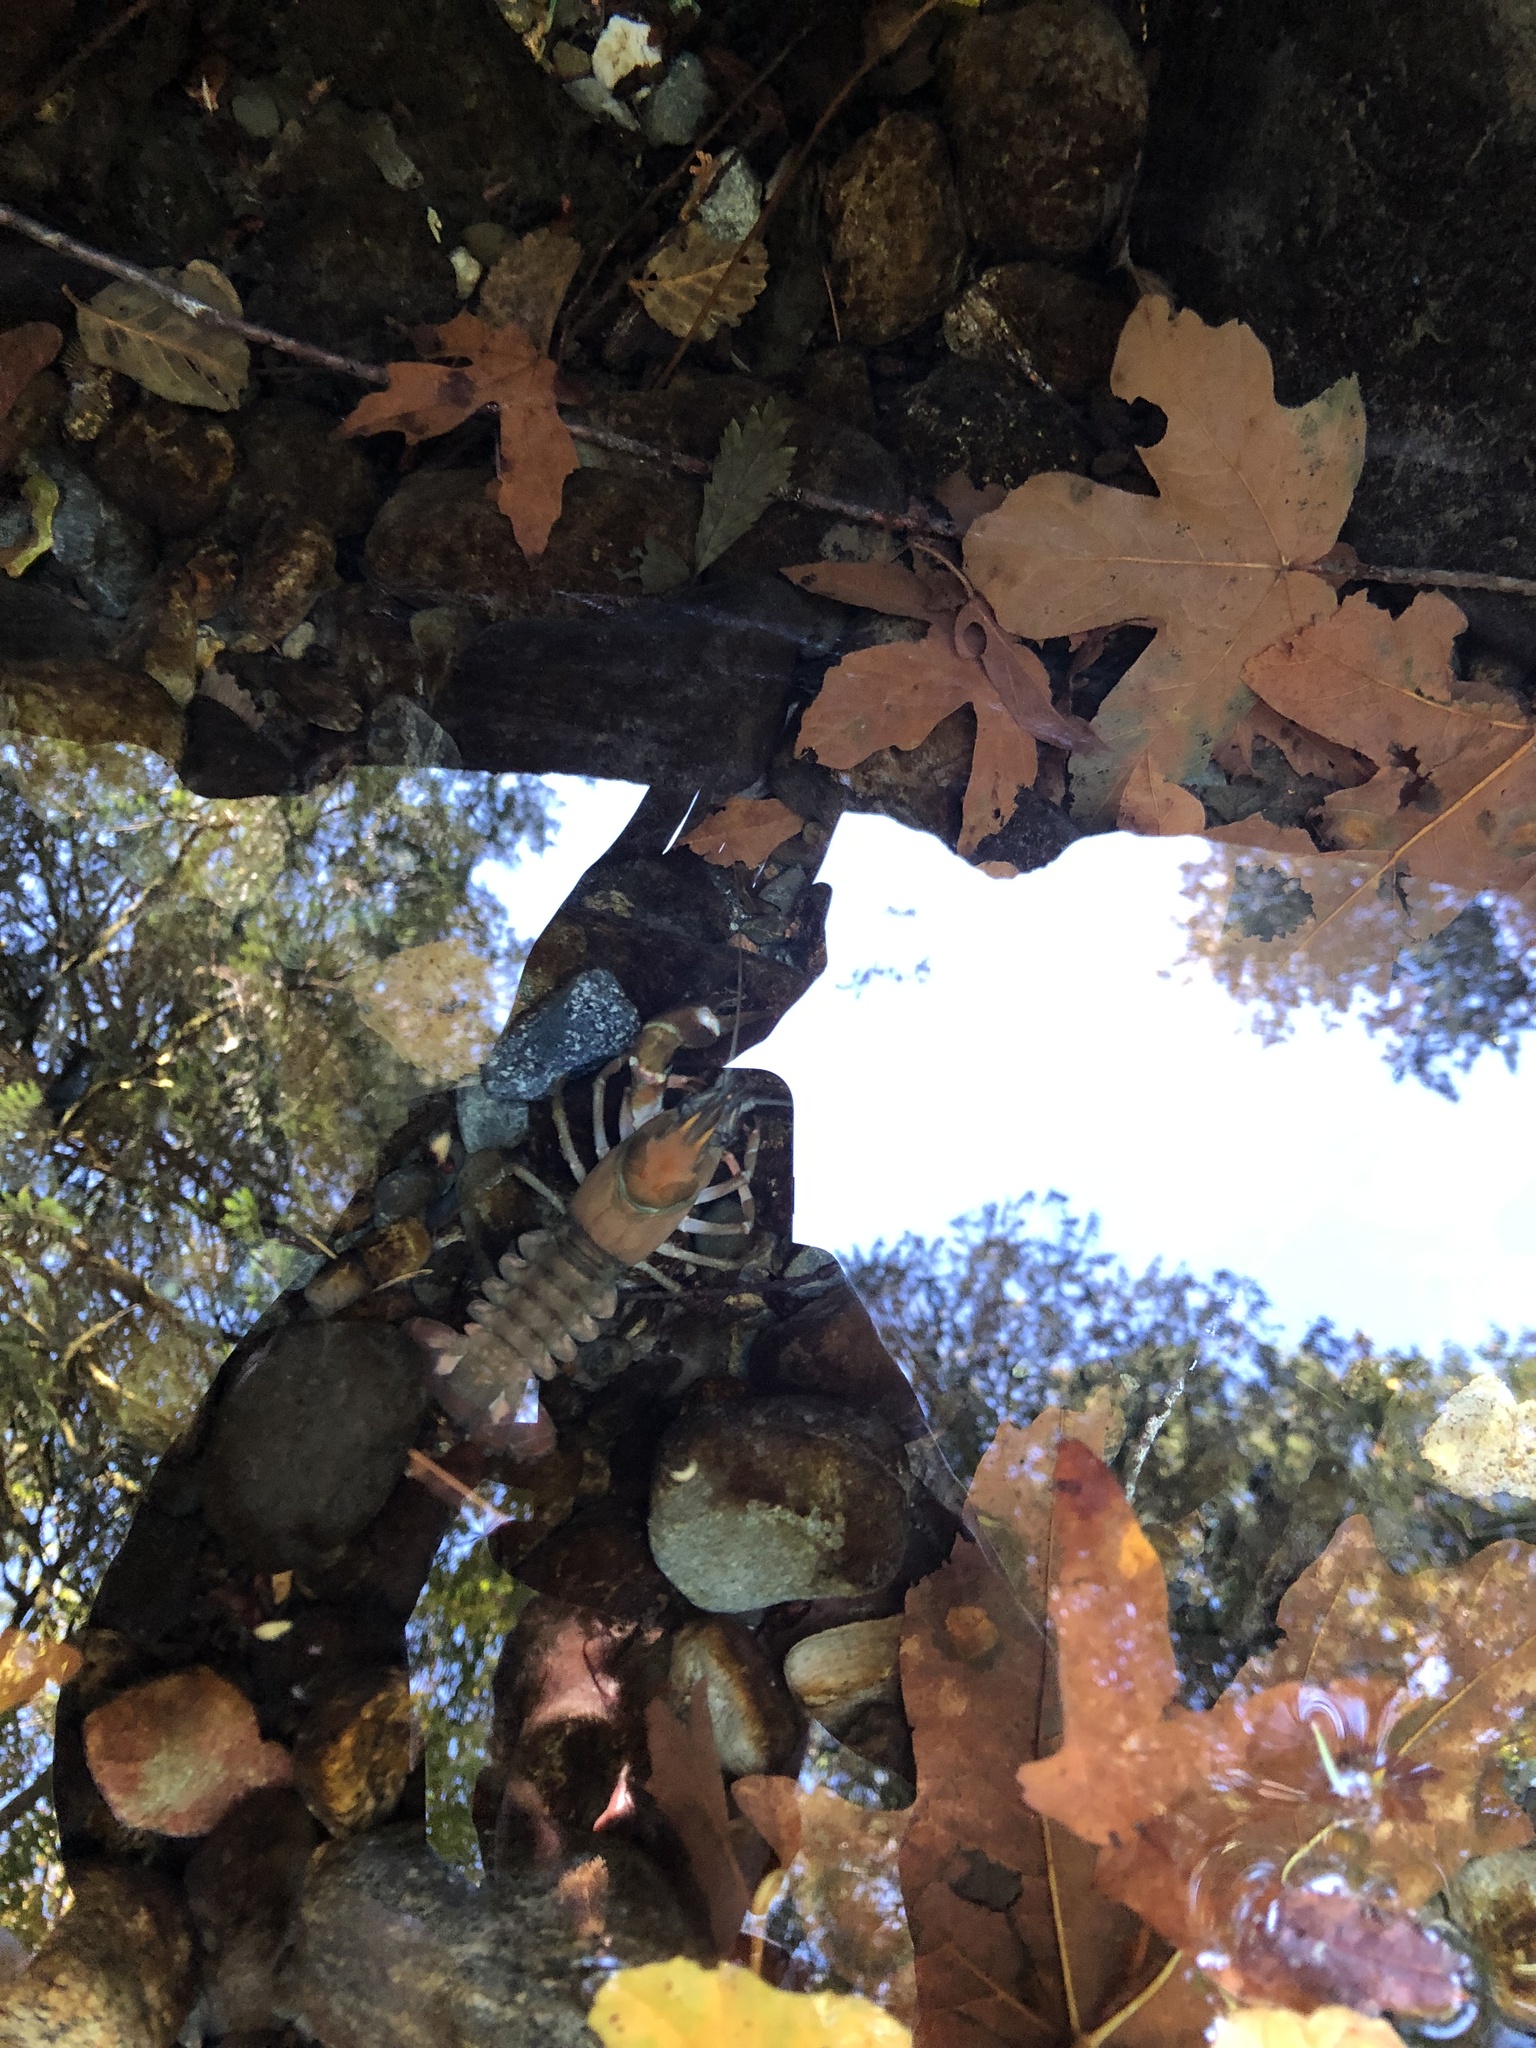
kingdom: Animalia
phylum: Arthropoda
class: Malacostraca
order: Decapoda
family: Astacidae
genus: Pacifastacus
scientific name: Pacifastacus leniusculus
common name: Signal crayfish
